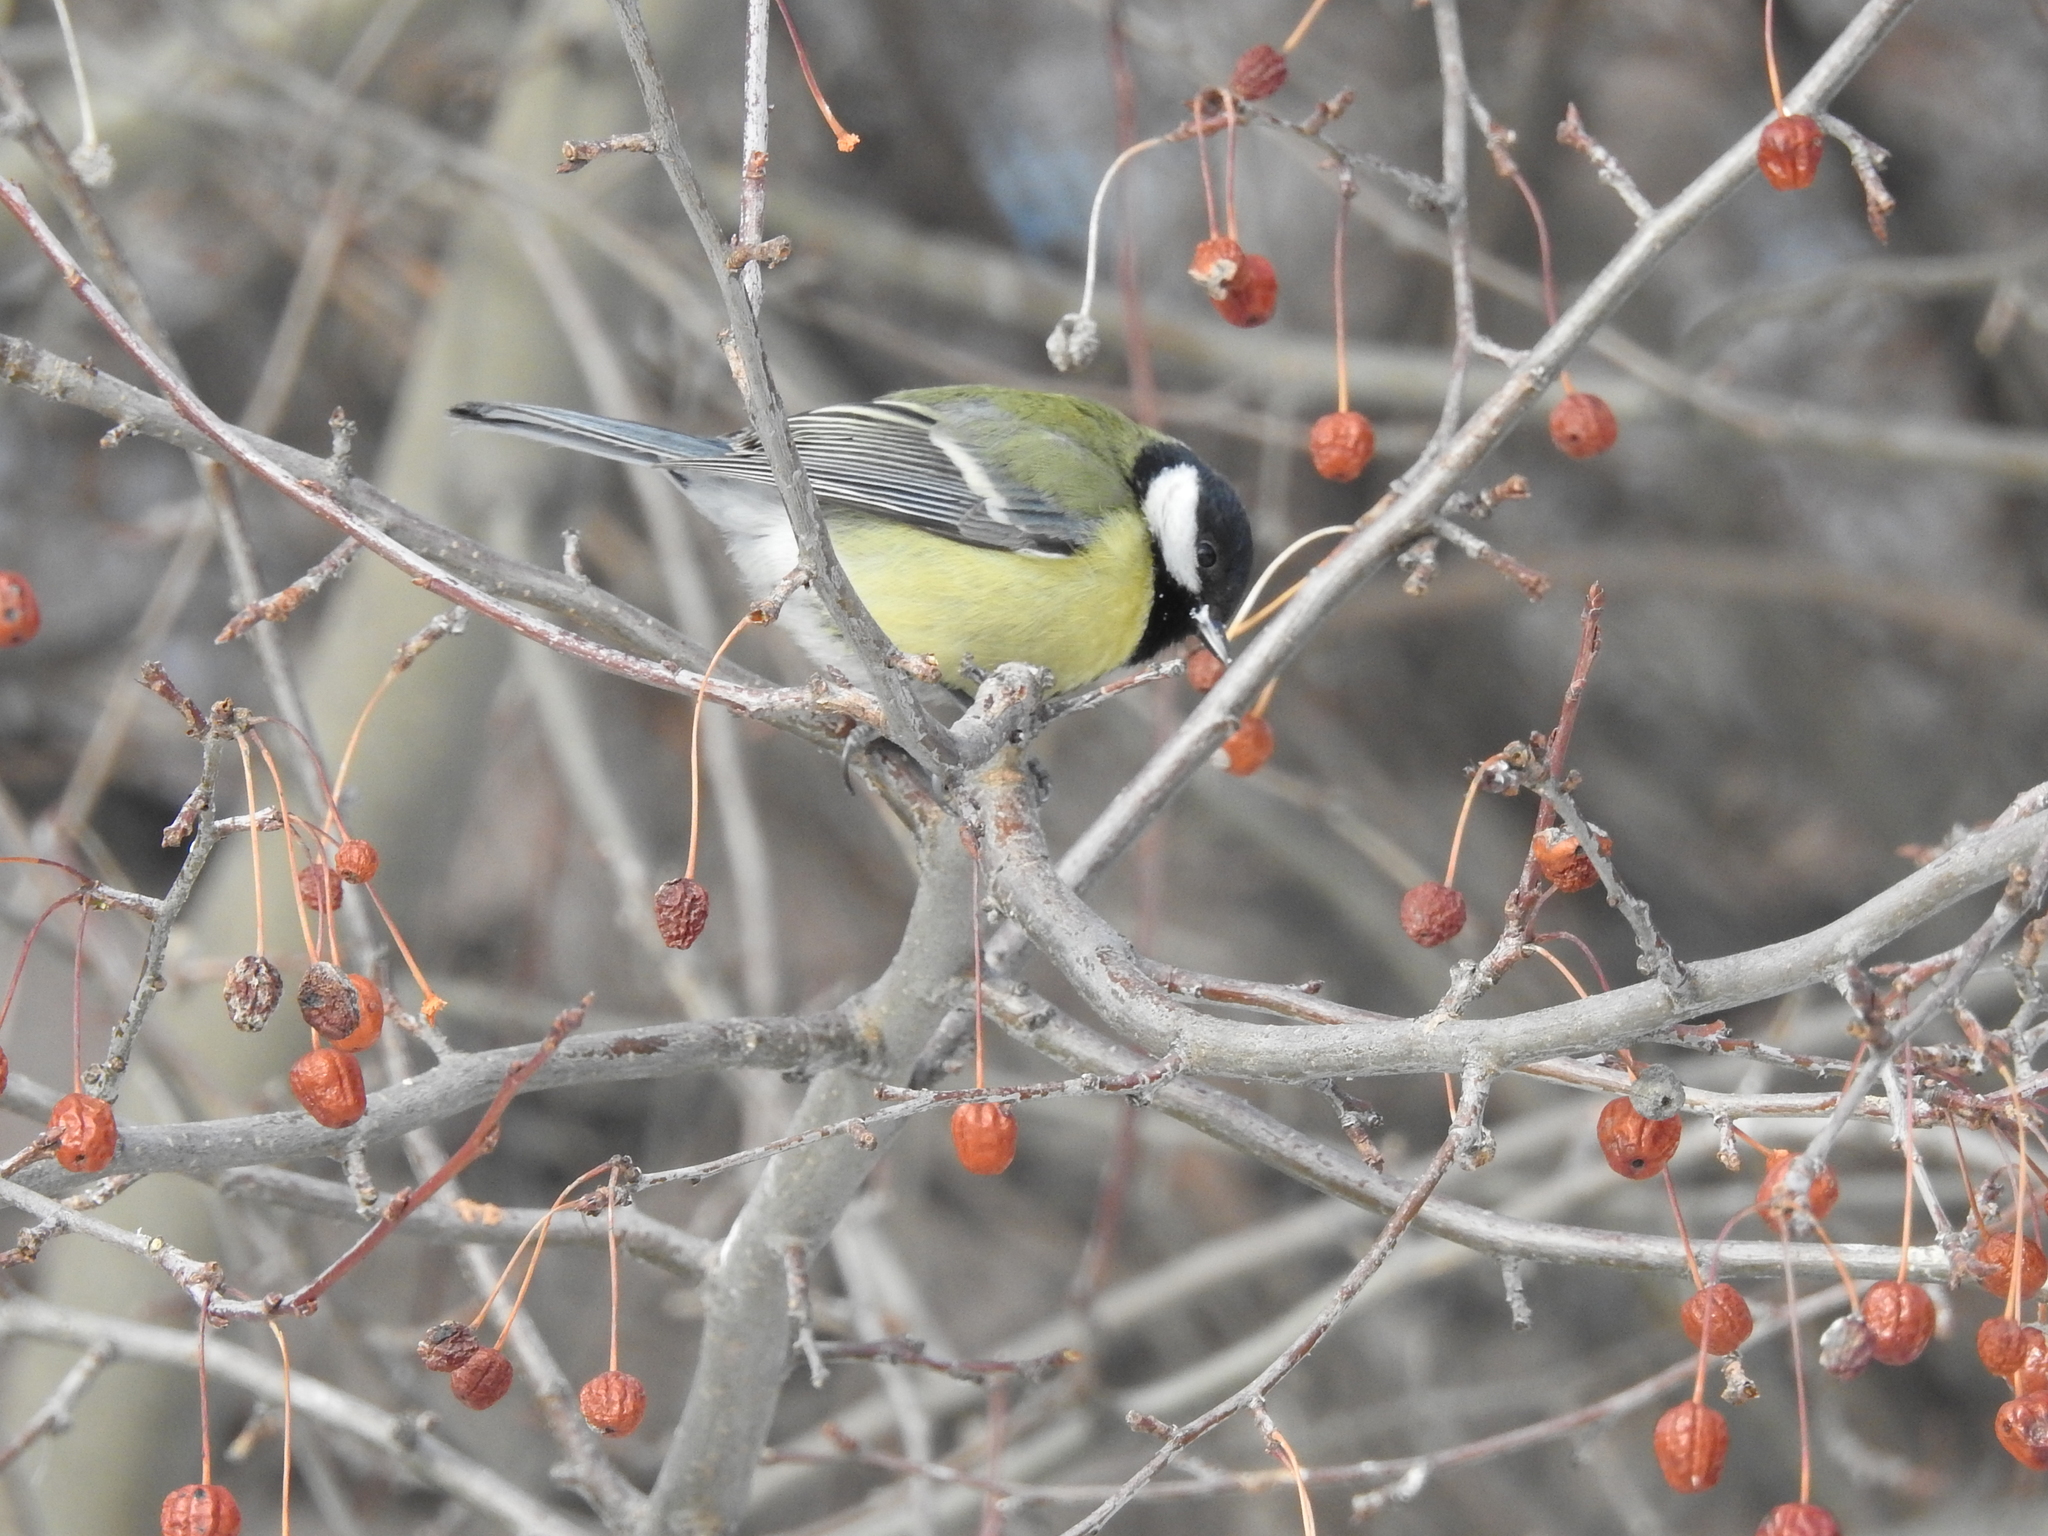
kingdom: Animalia
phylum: Chordata
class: Aves
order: Passeriformes
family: Paridae
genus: Parus
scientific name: Parus major
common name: Great tit
